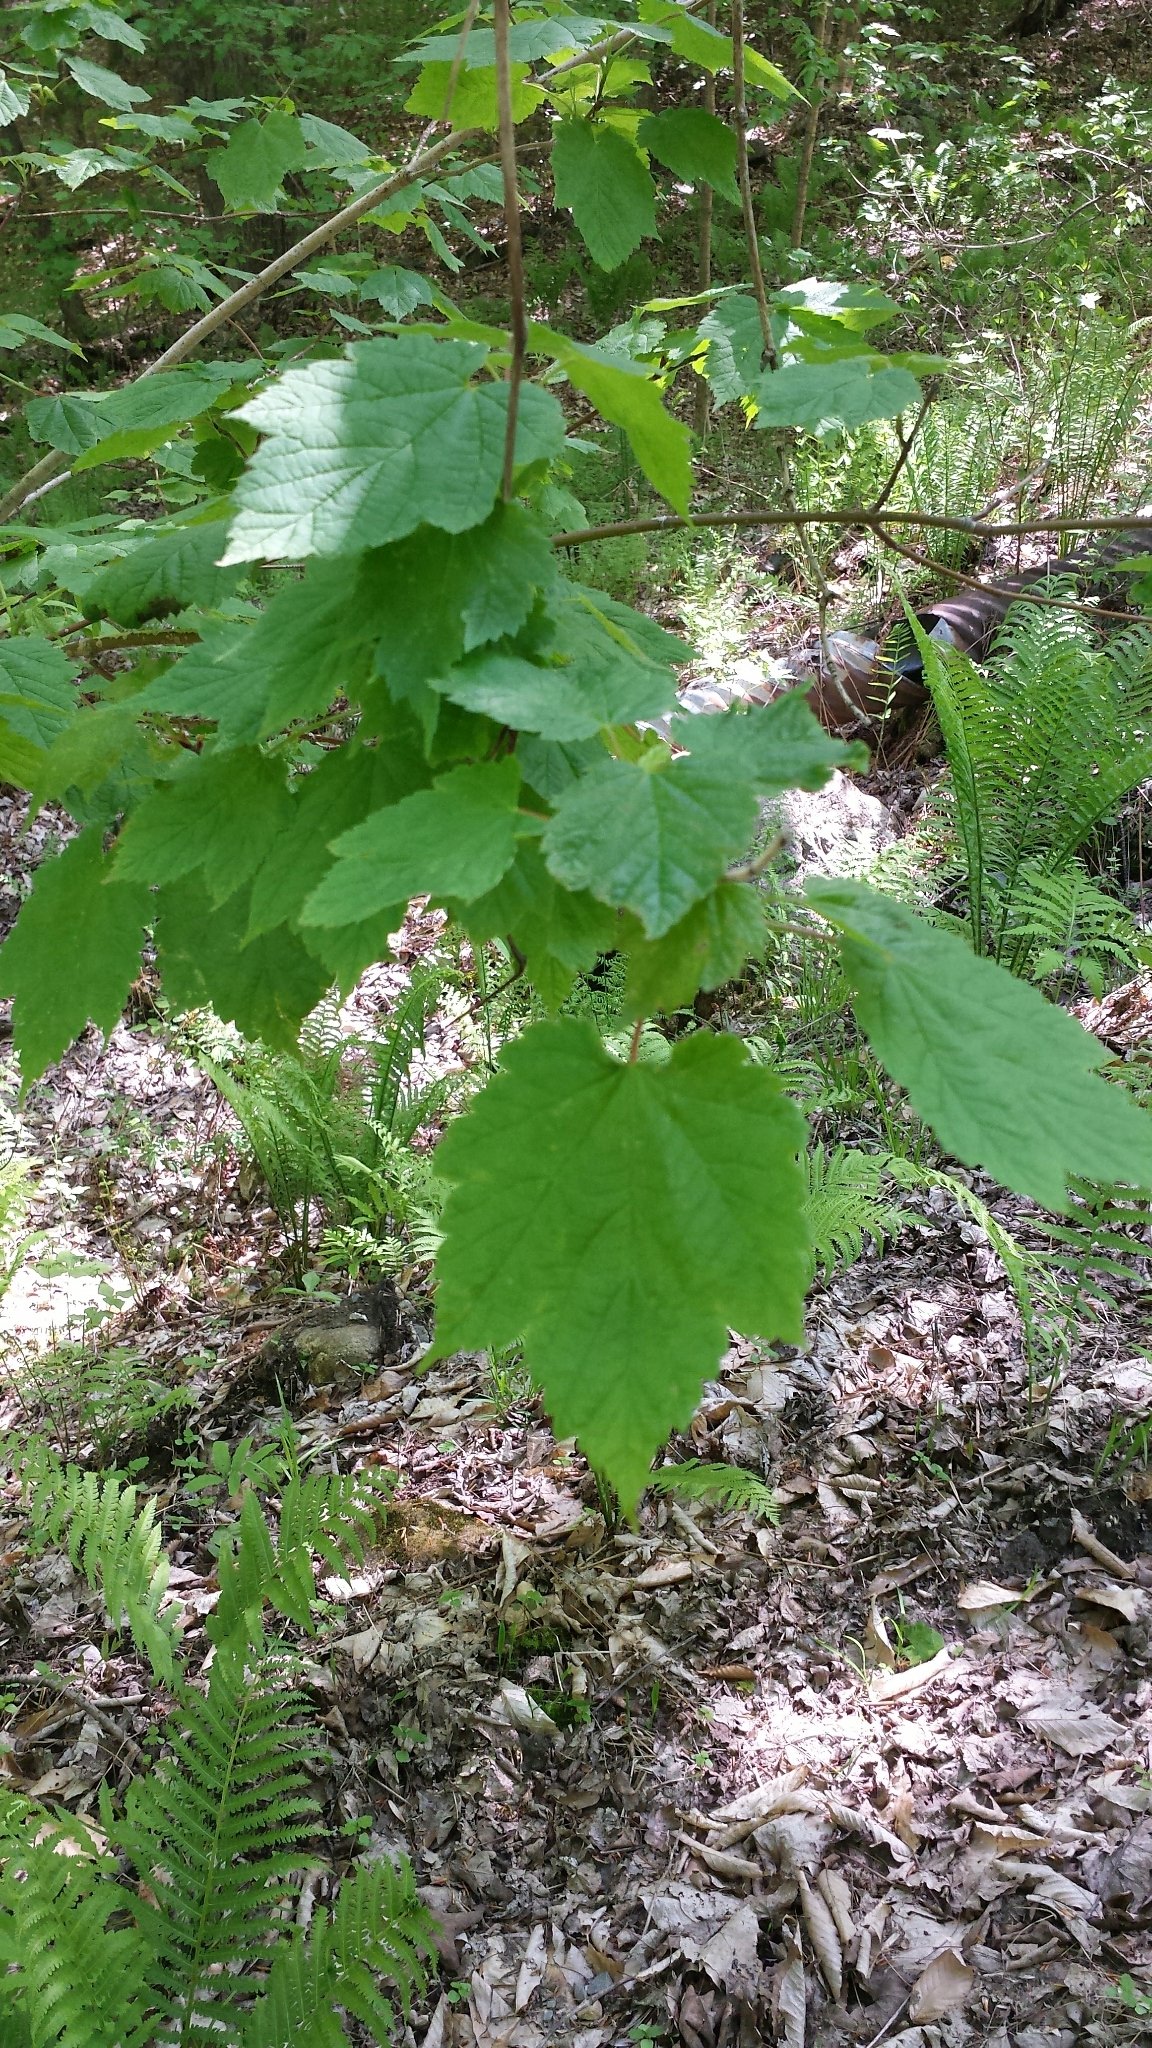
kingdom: Plantae
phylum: Tracheophyta
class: Magnoliopsida
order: Sapindales
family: Sapindaceae
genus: Acer
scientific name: Acer spicatum
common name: Mountain maple
